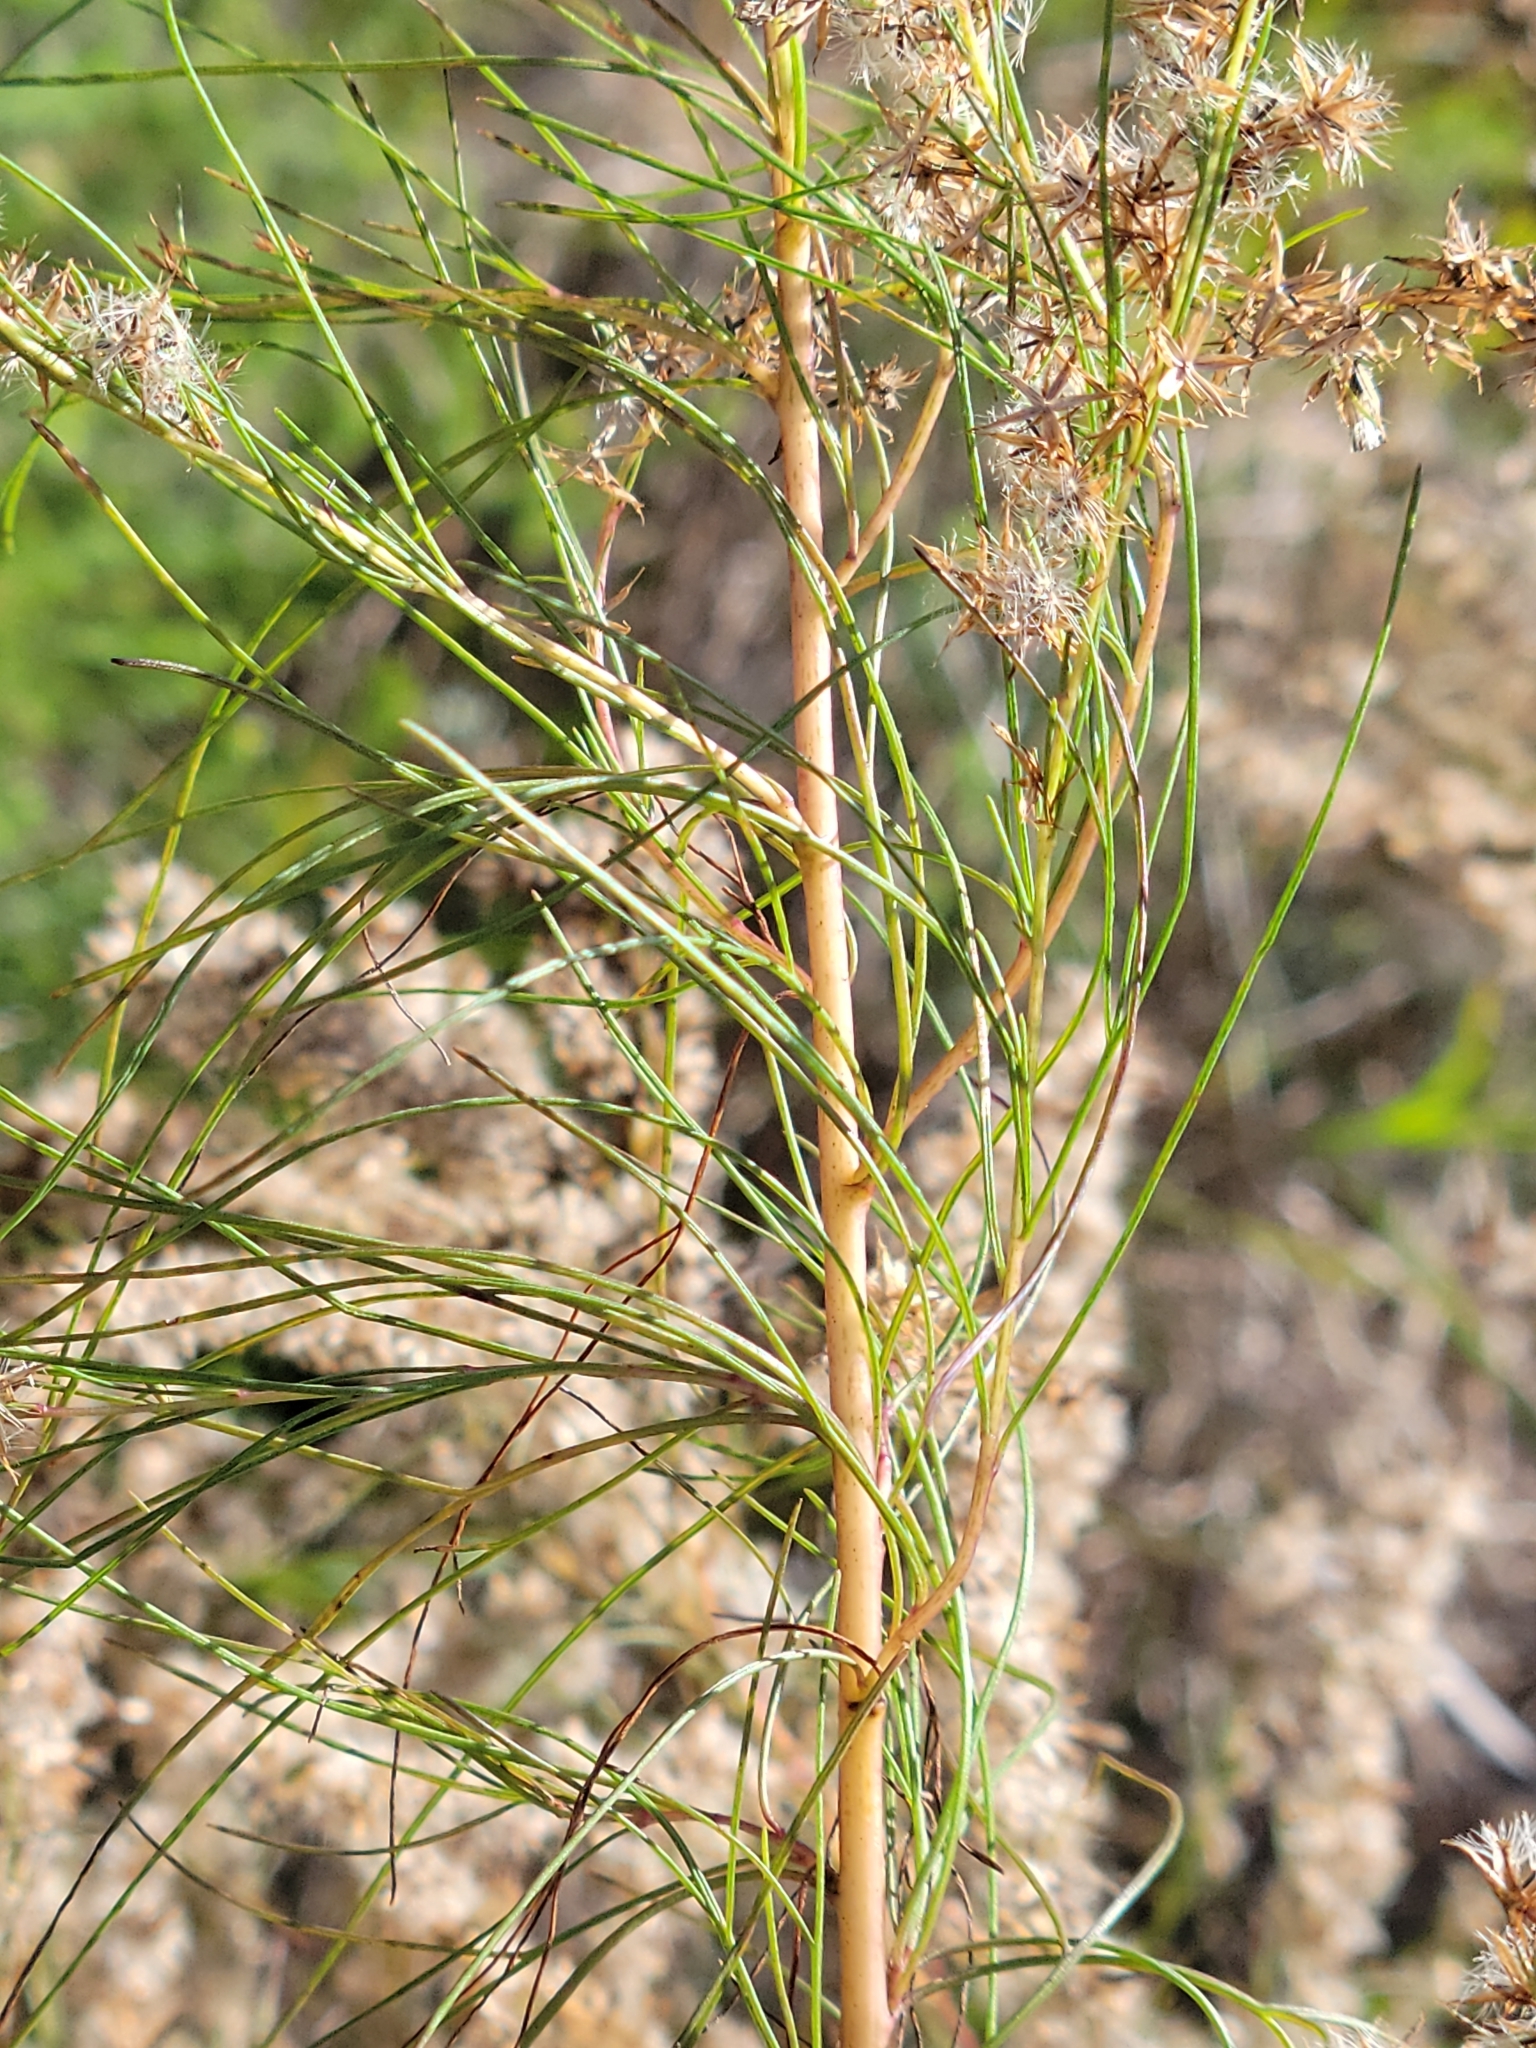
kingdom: Plantae
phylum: Tracheophyta
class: Magnoliopsida
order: Asterales
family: Asteraceae
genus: Eupatorium
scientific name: Eupatorium leptophyllum
